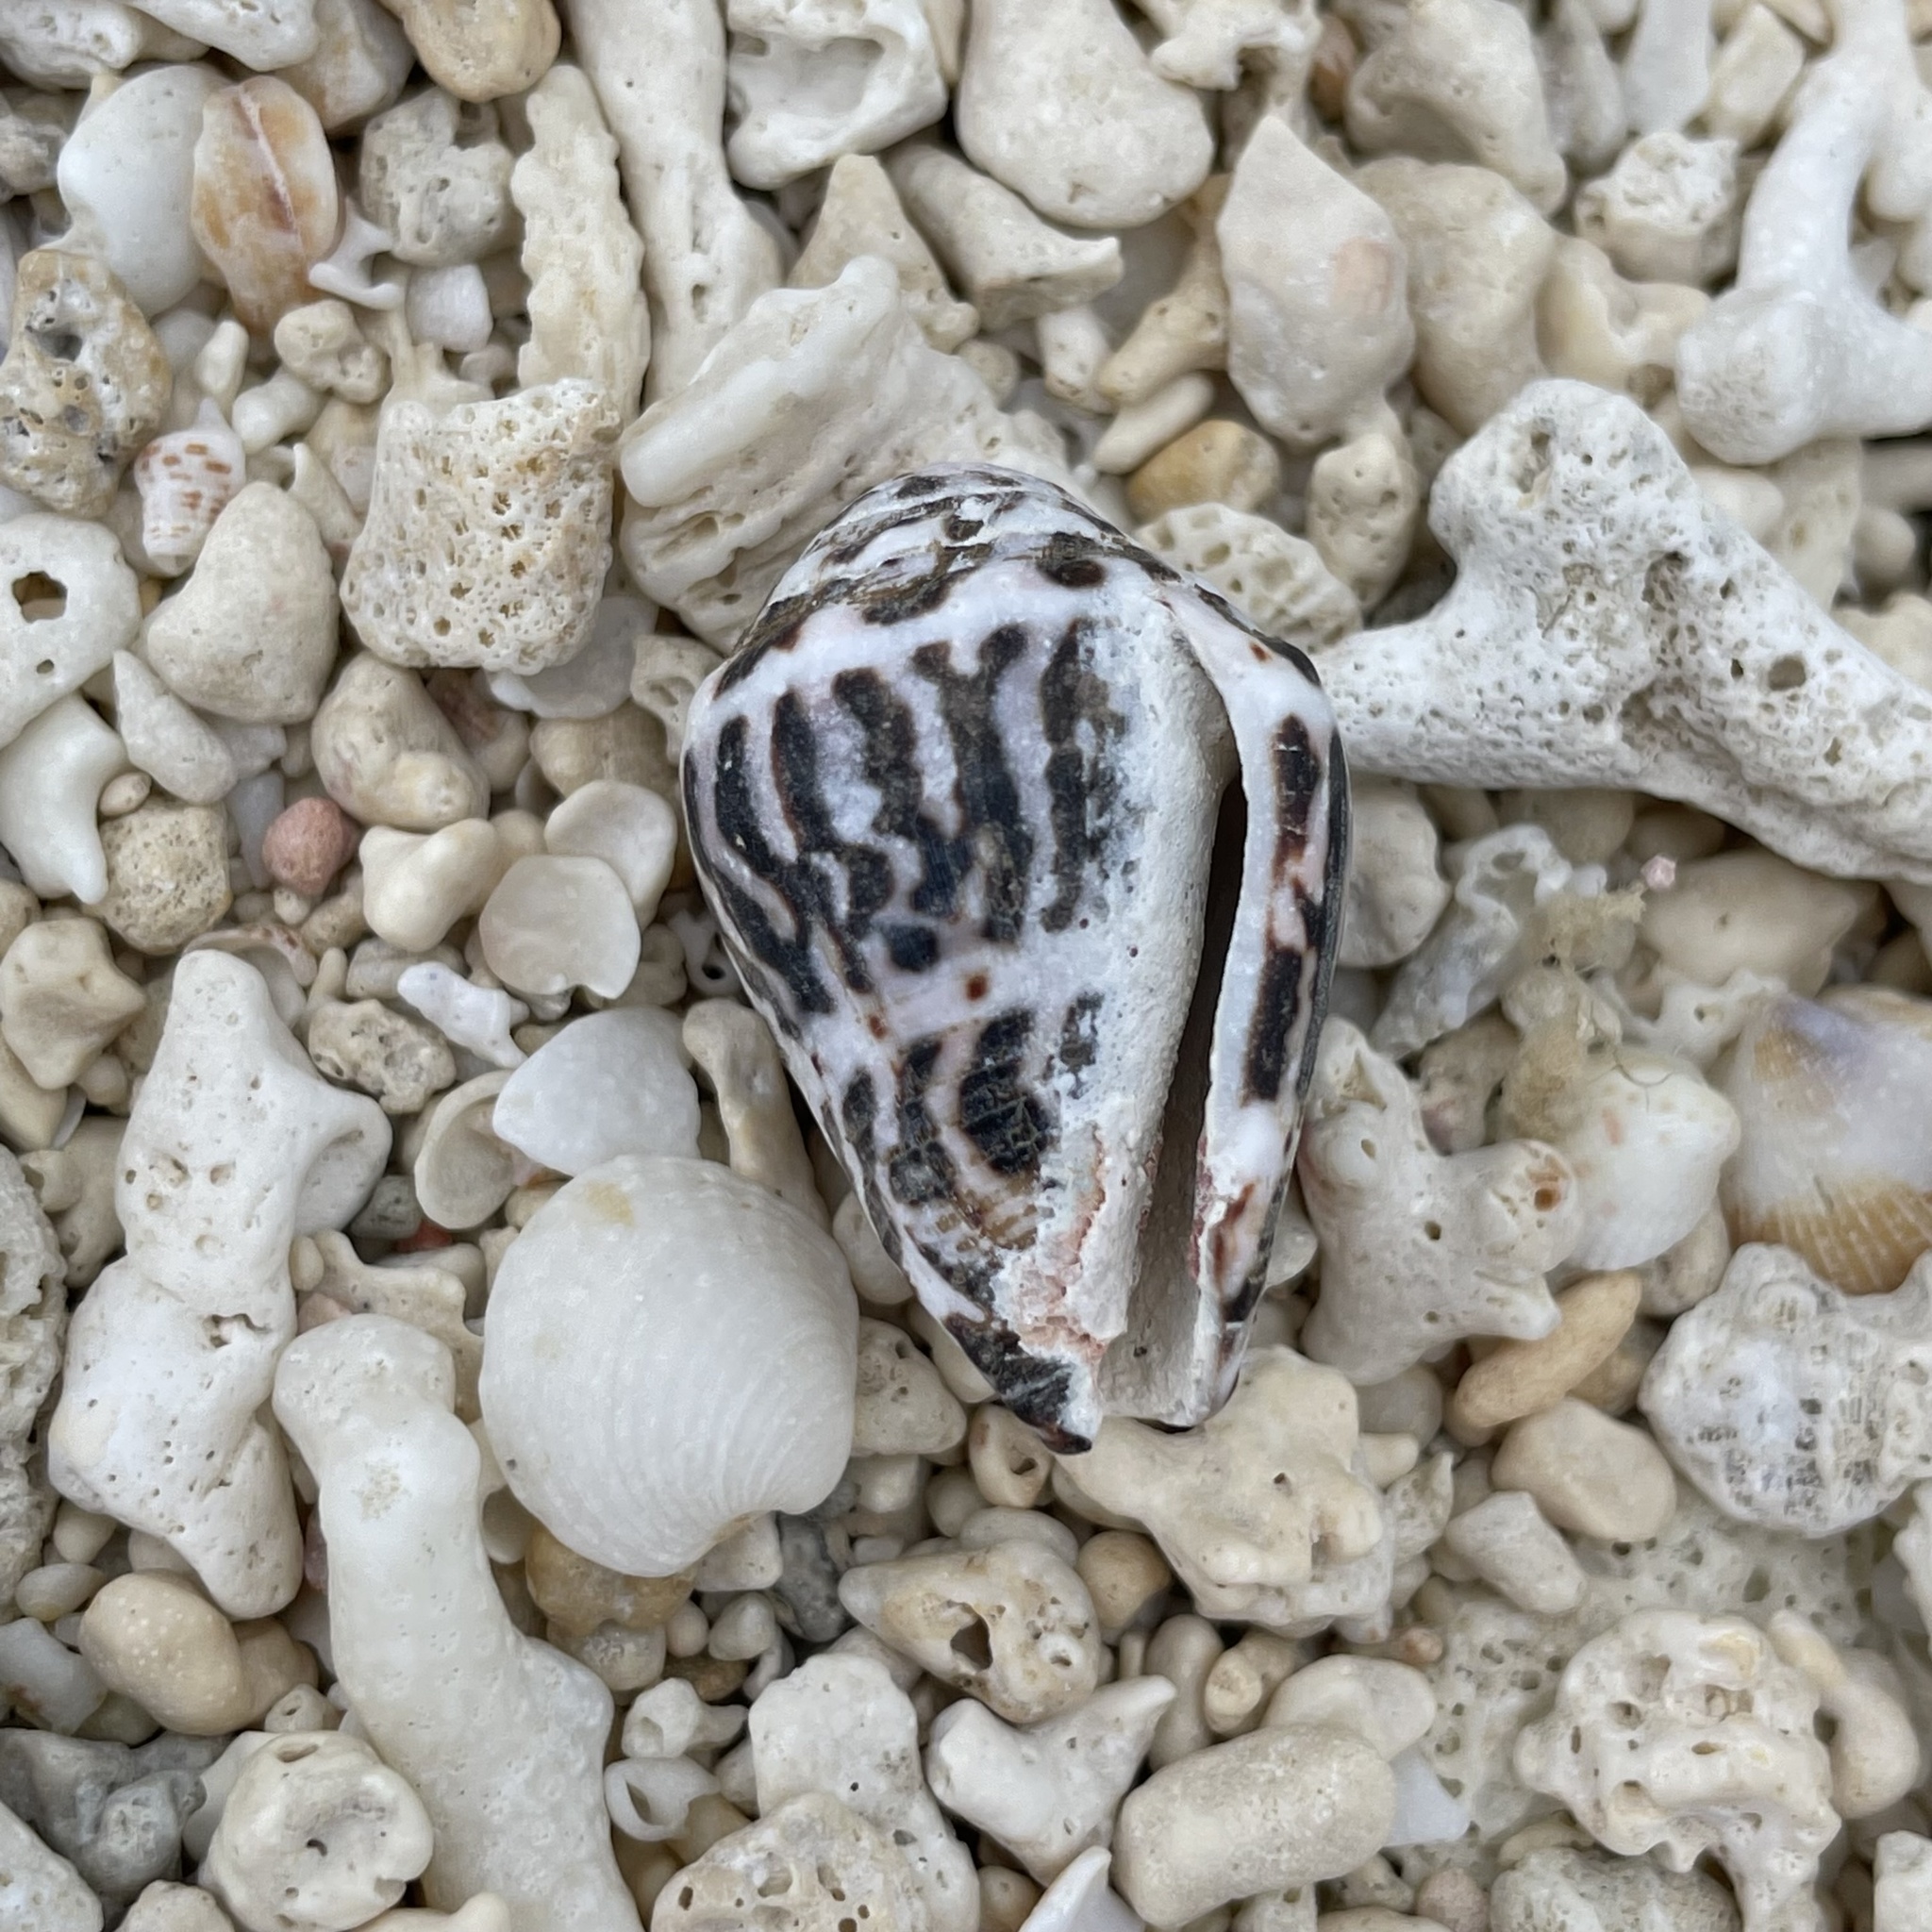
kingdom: Animalia
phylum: Mollusca
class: Gastropoda
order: Neogastropoda
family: Conidae
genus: Conus
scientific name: Conus chaldaeus
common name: Astrologer's cone
